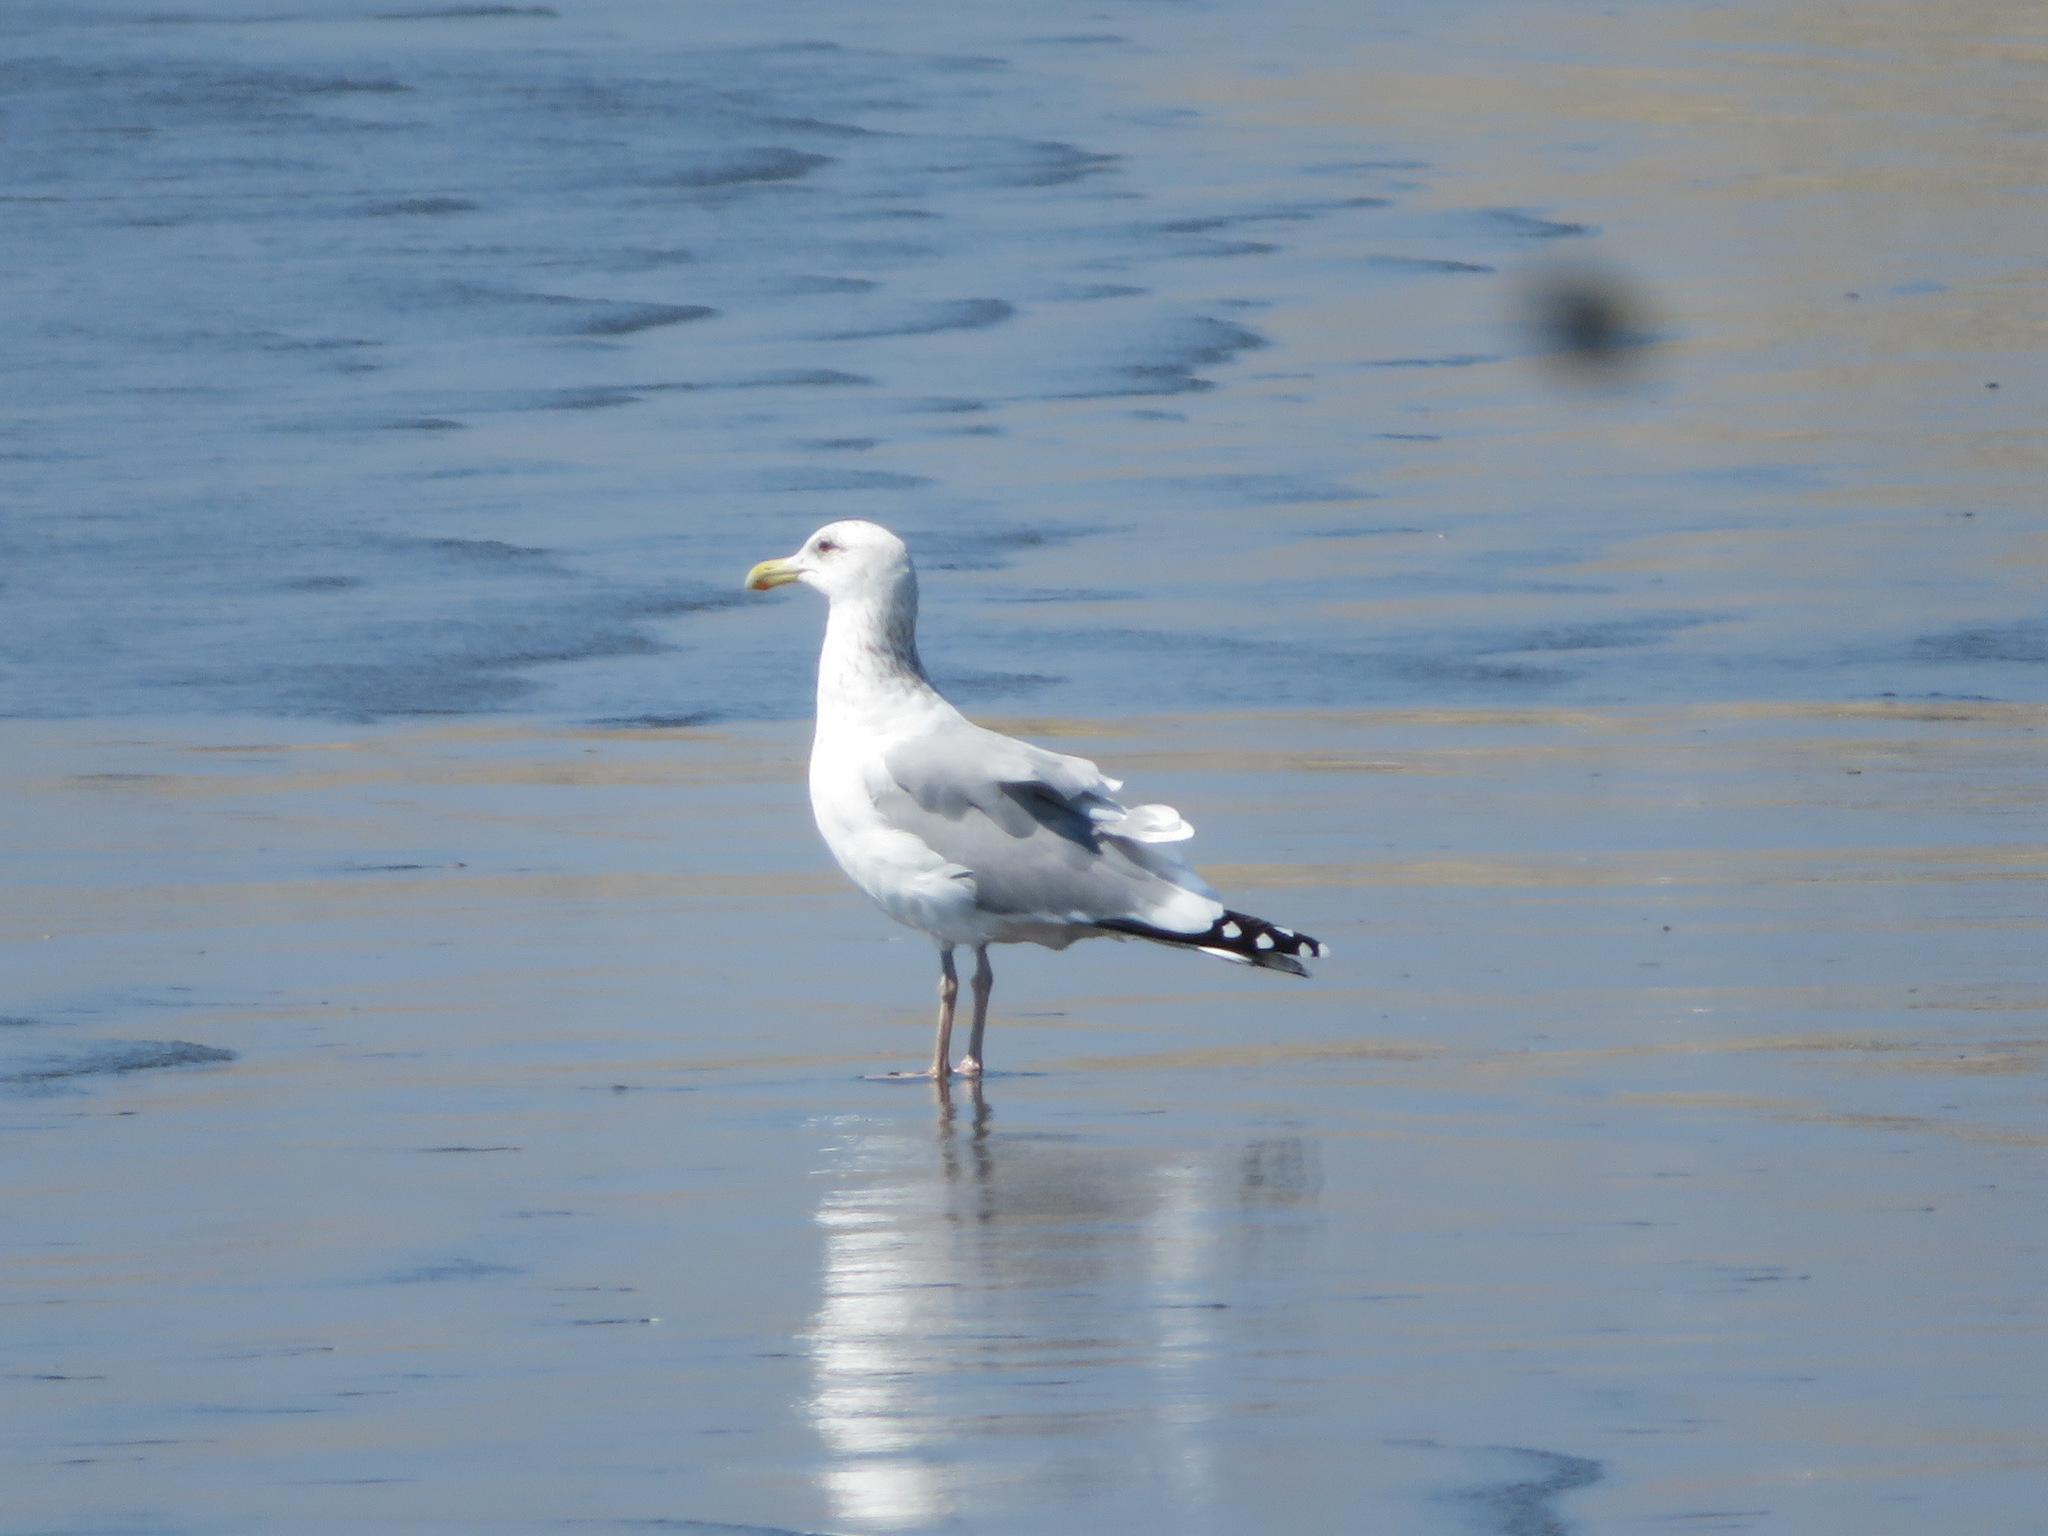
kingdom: Animalia
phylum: Chordata
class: Aves
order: Charadriiformes
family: Laridae
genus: Larus
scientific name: Larus vegae
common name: Vega gull
